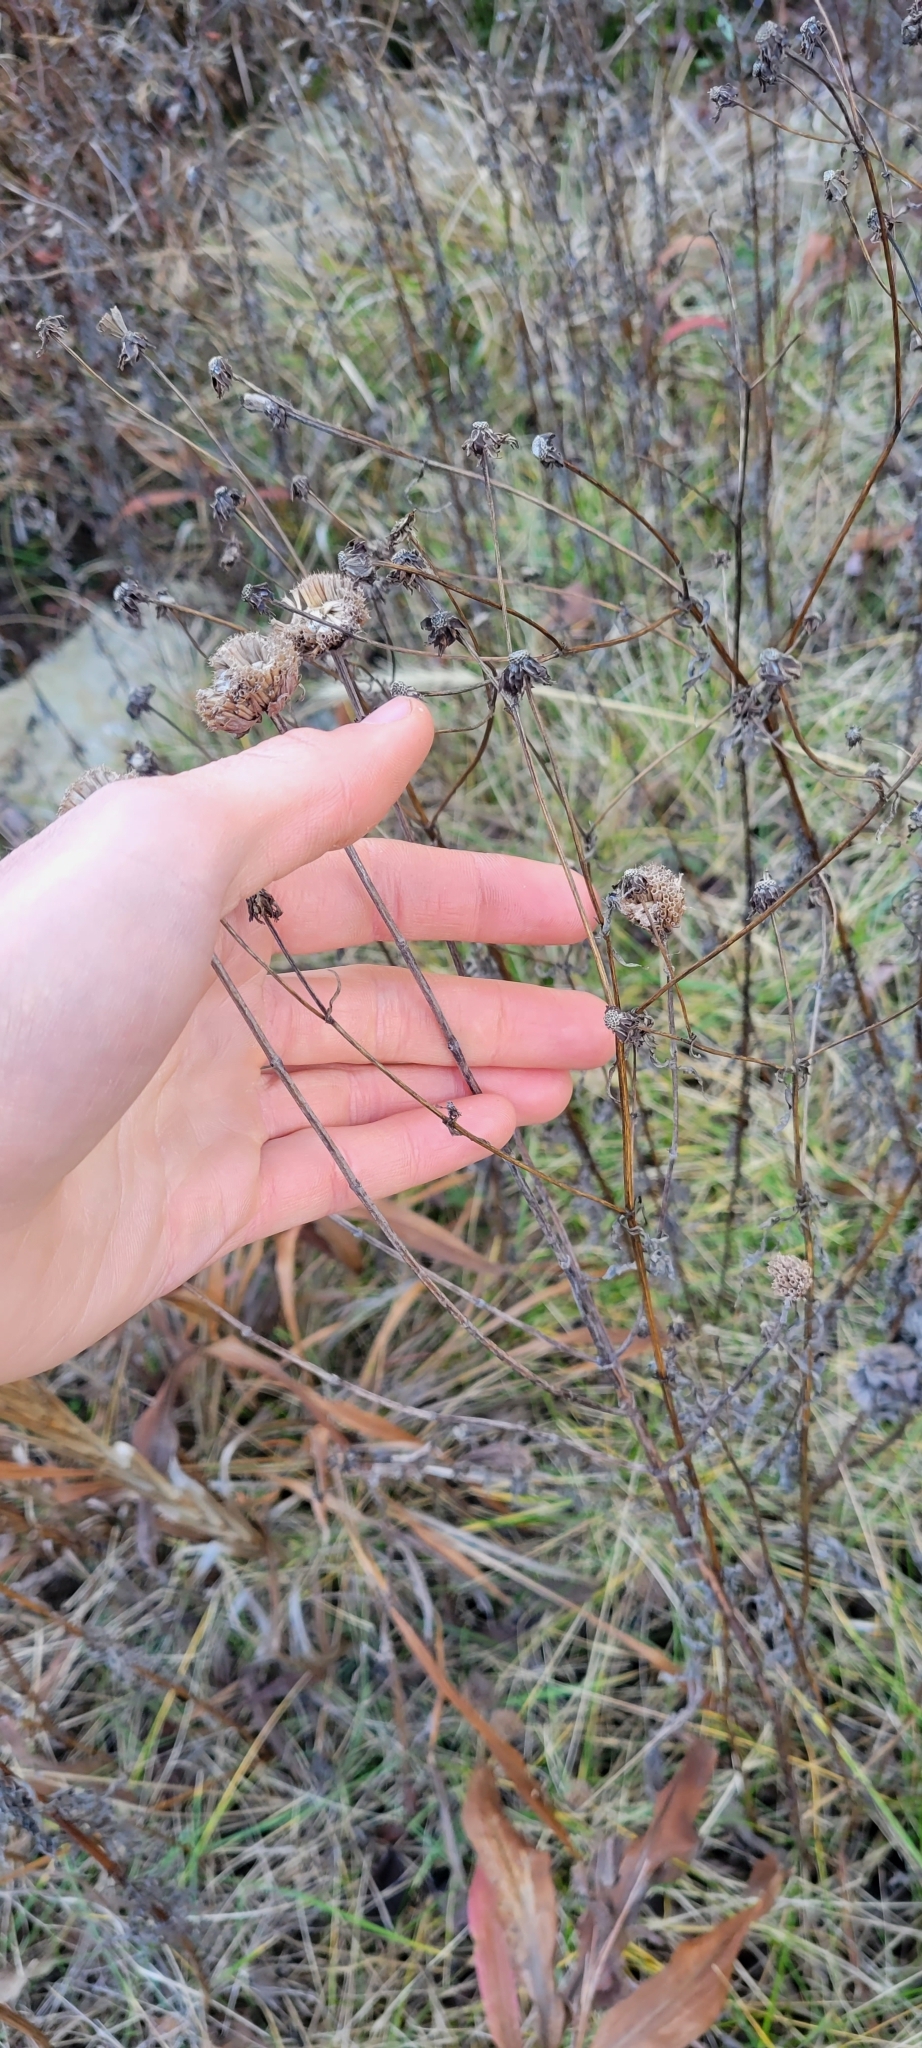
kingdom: Plantae
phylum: Tracheophyta
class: Magnoliopsida
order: Lamiales
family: Lamiaceae
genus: Monarda
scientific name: Monarda fistulosa
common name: Purple beebalm
